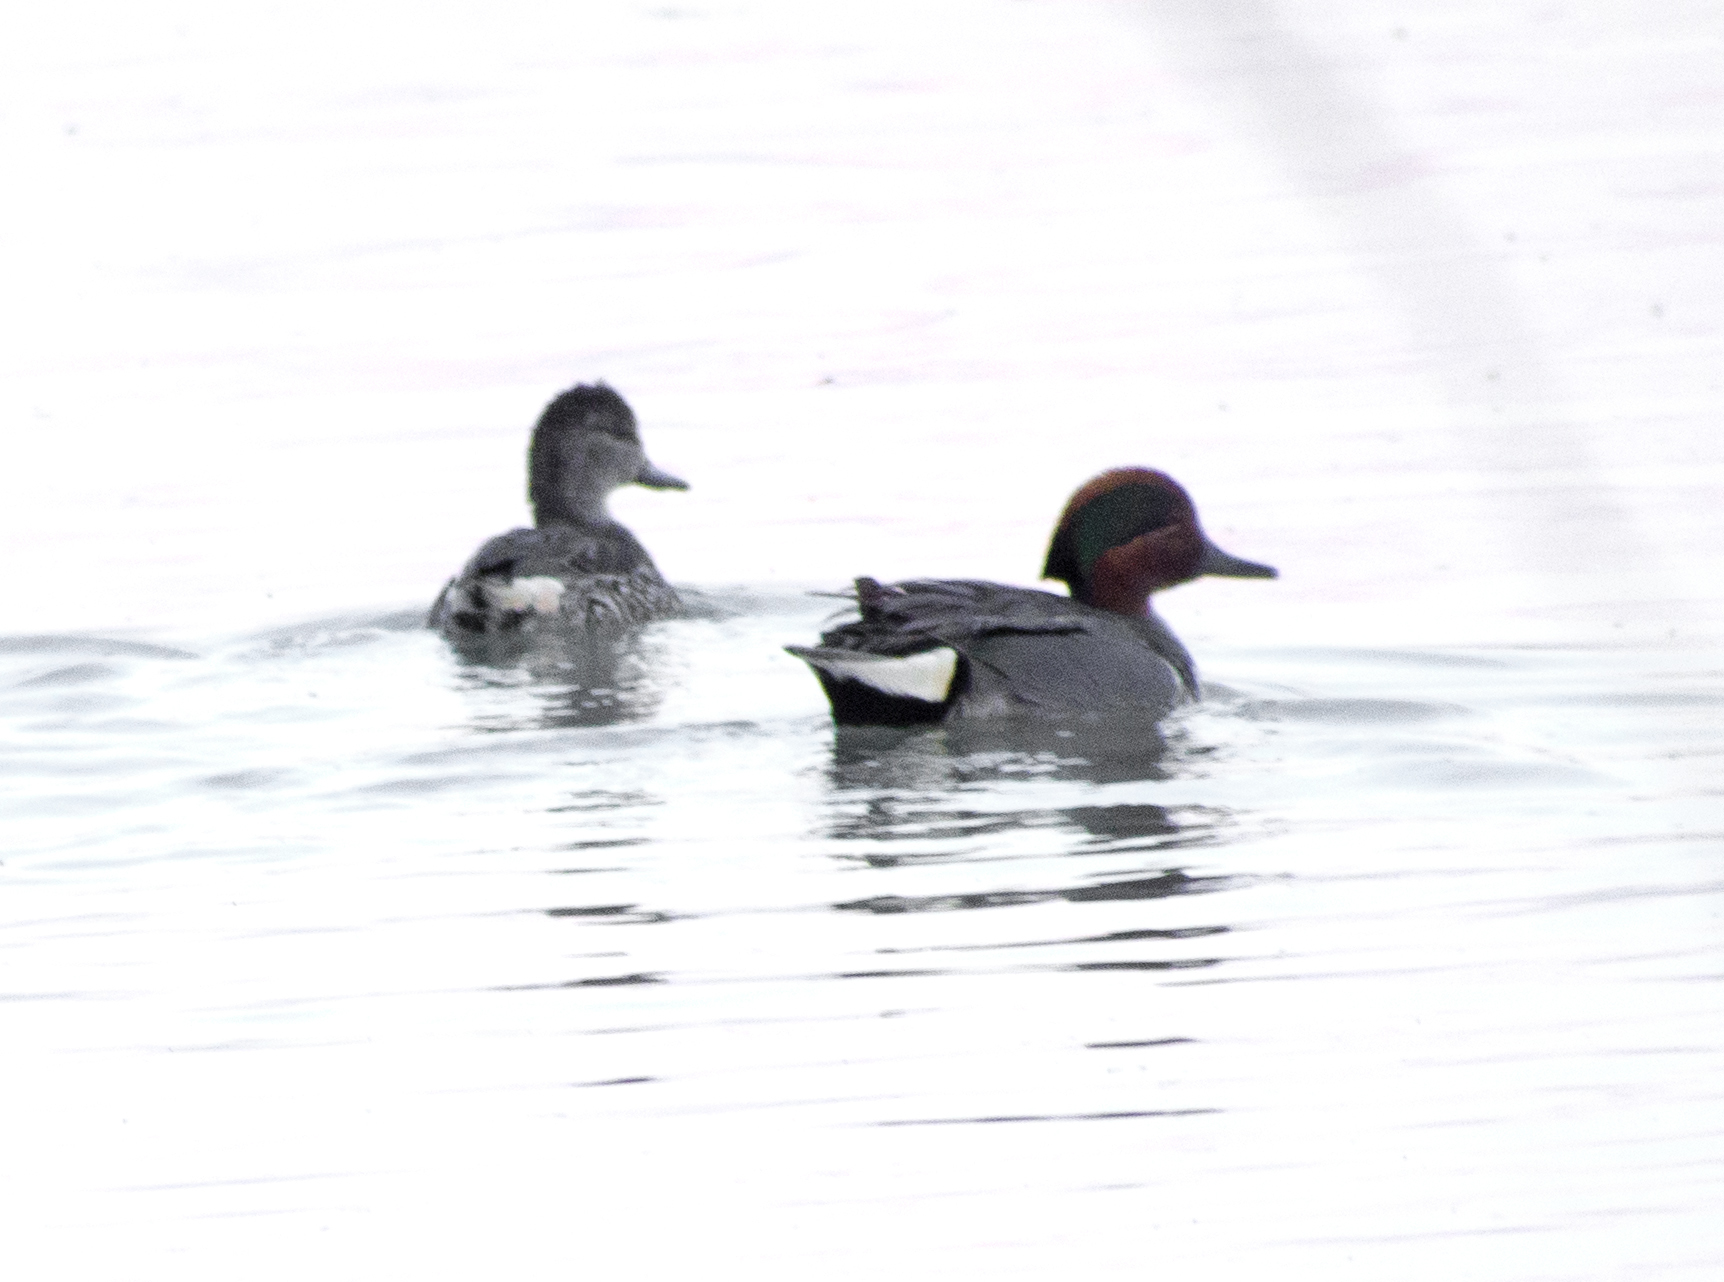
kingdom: Animalia
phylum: Chordata
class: Aves
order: Anseriformes
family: Anatidae
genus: Anas
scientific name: Anas crecca
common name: Eurasian teal
